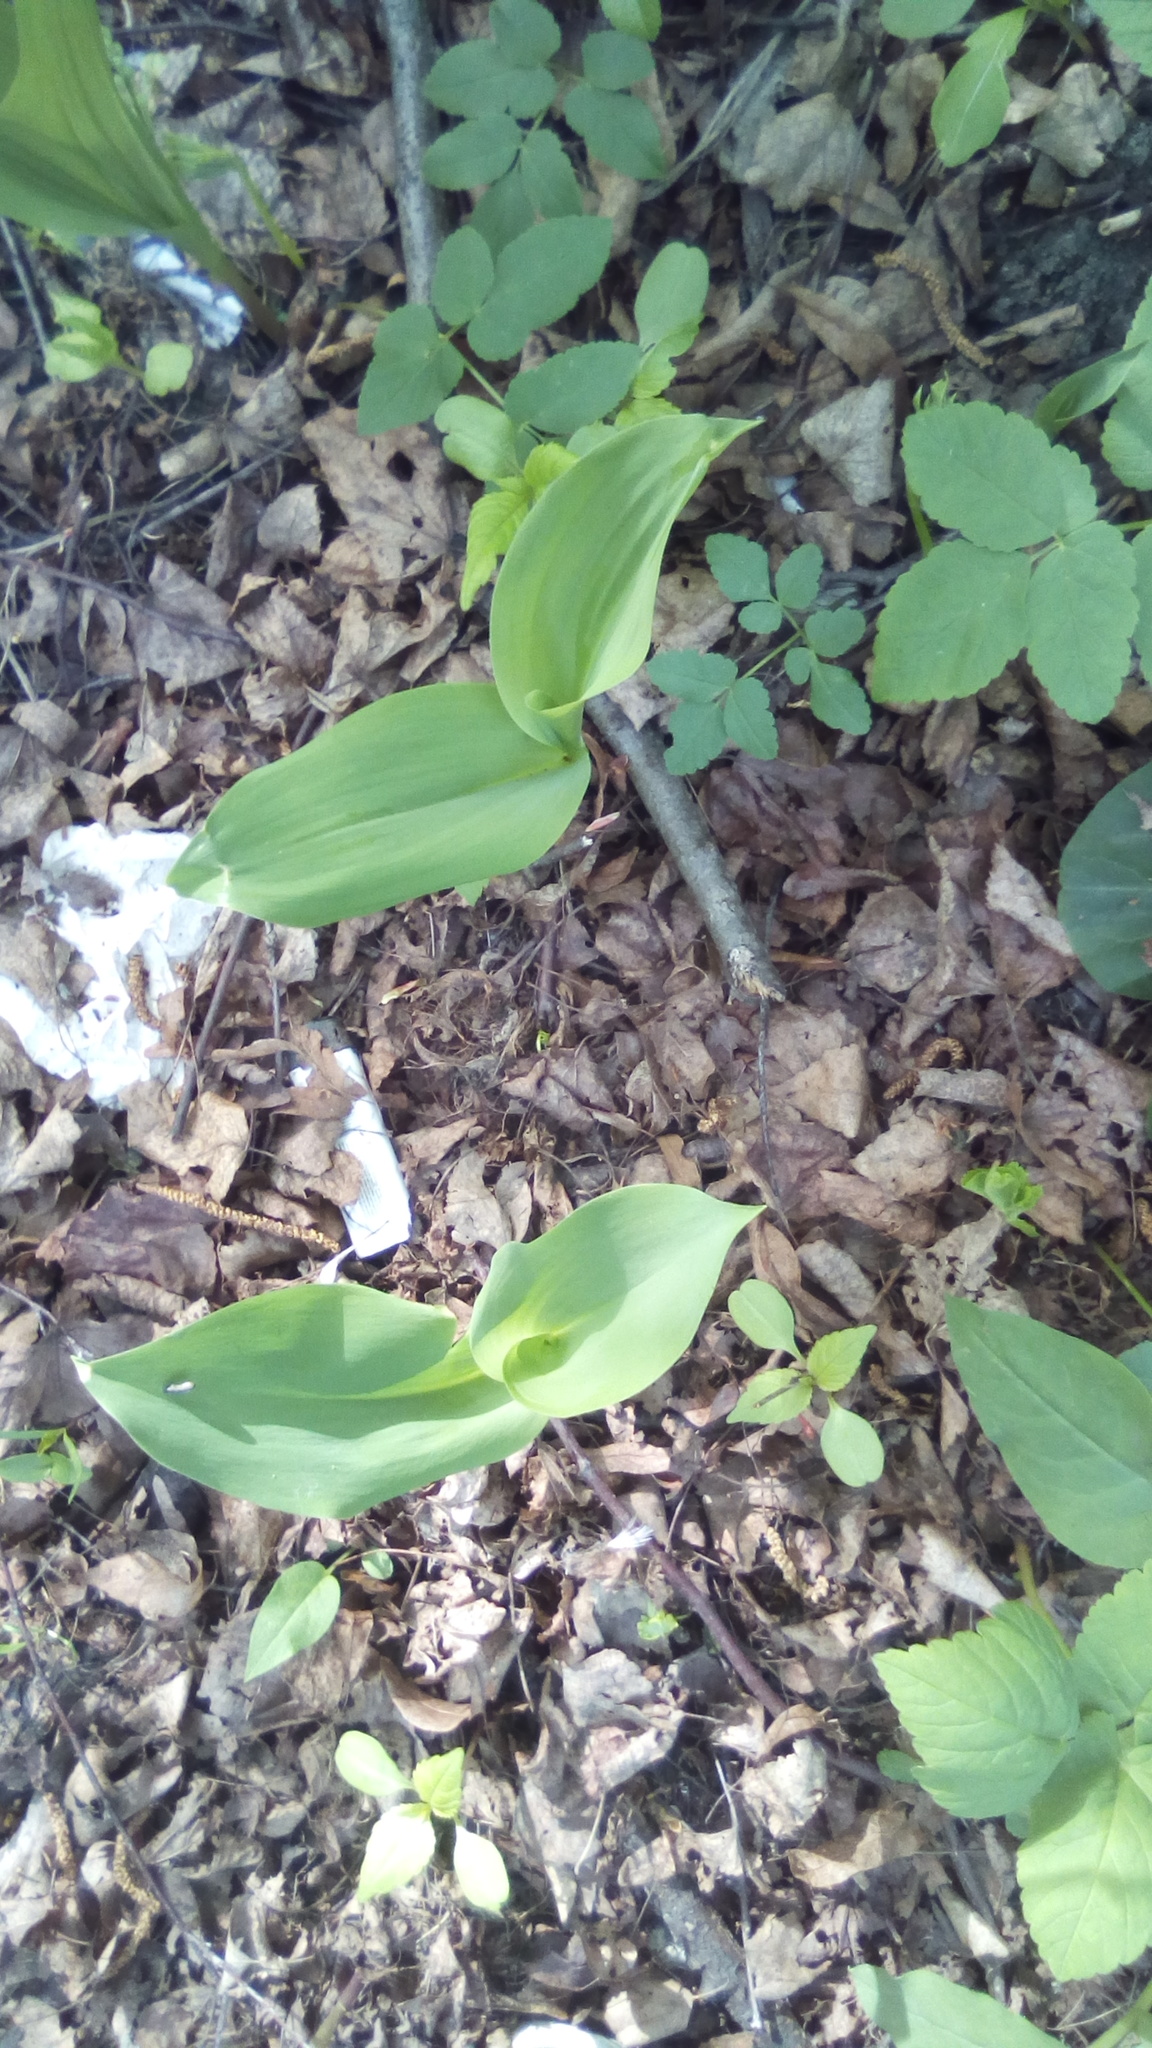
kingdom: Plantae
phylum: Tracheophyta
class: Liliopsida
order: Asparagales
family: Asparagaceae
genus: Convallaria
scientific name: Convallaria majalis
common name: Lily-of-the-valley
